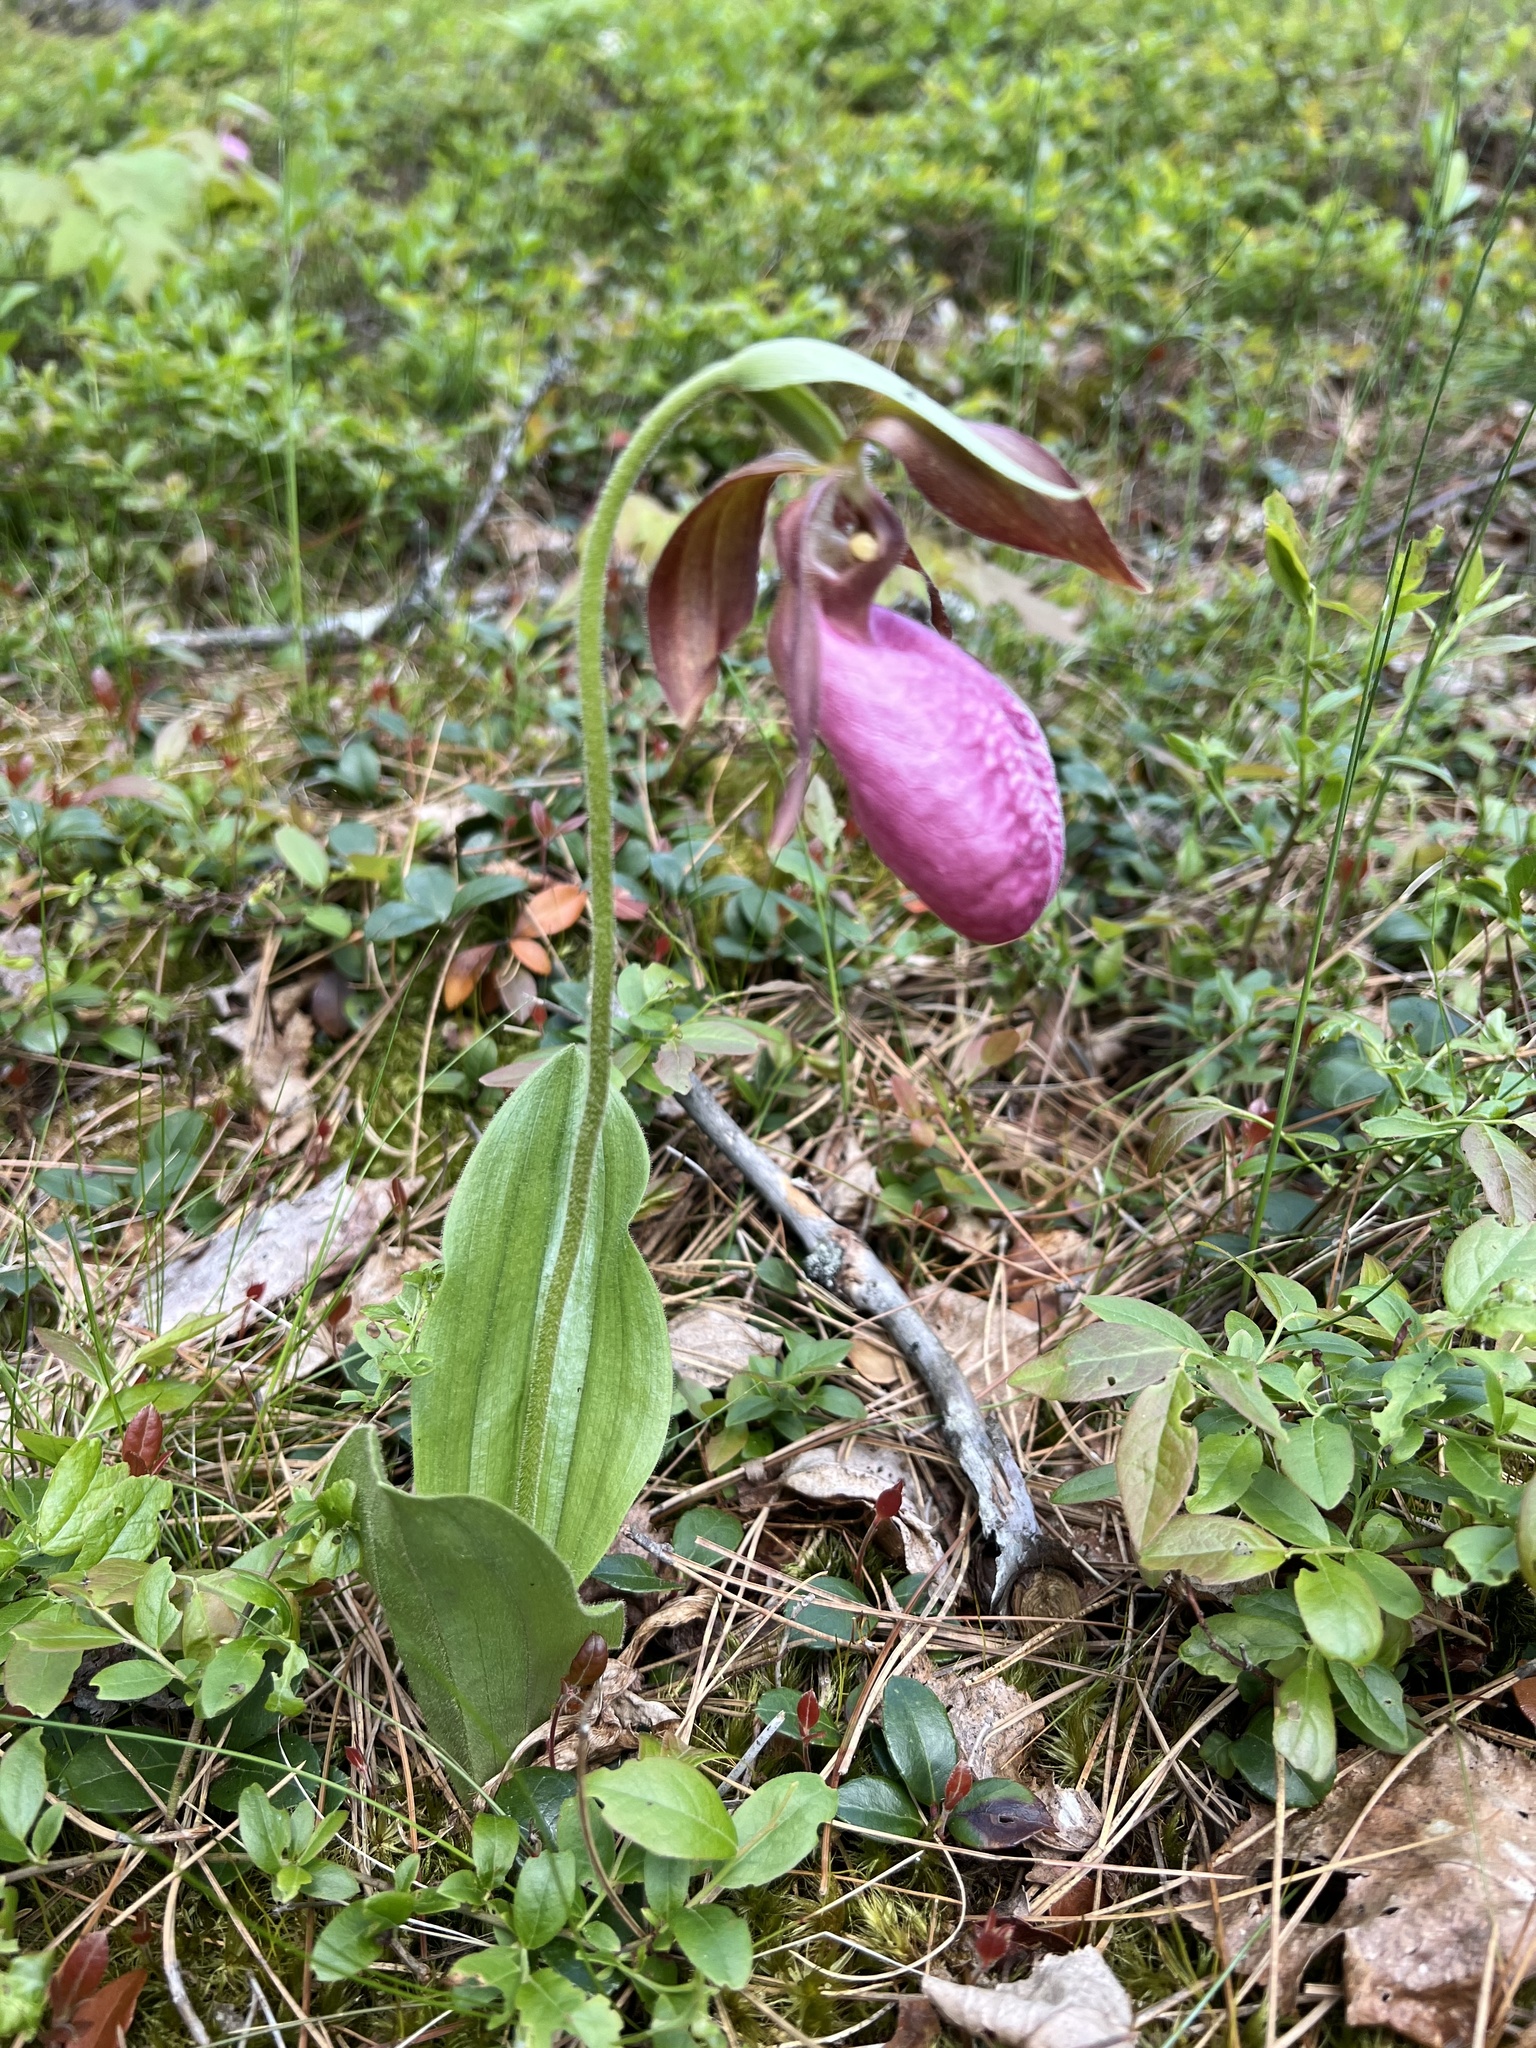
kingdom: Plantae
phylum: Tracheophyta
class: Liliopsida
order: Asparagales
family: Orchidaceae
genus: Cypripedium
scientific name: Cypripedium acaule
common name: Pink lady's-slipper
